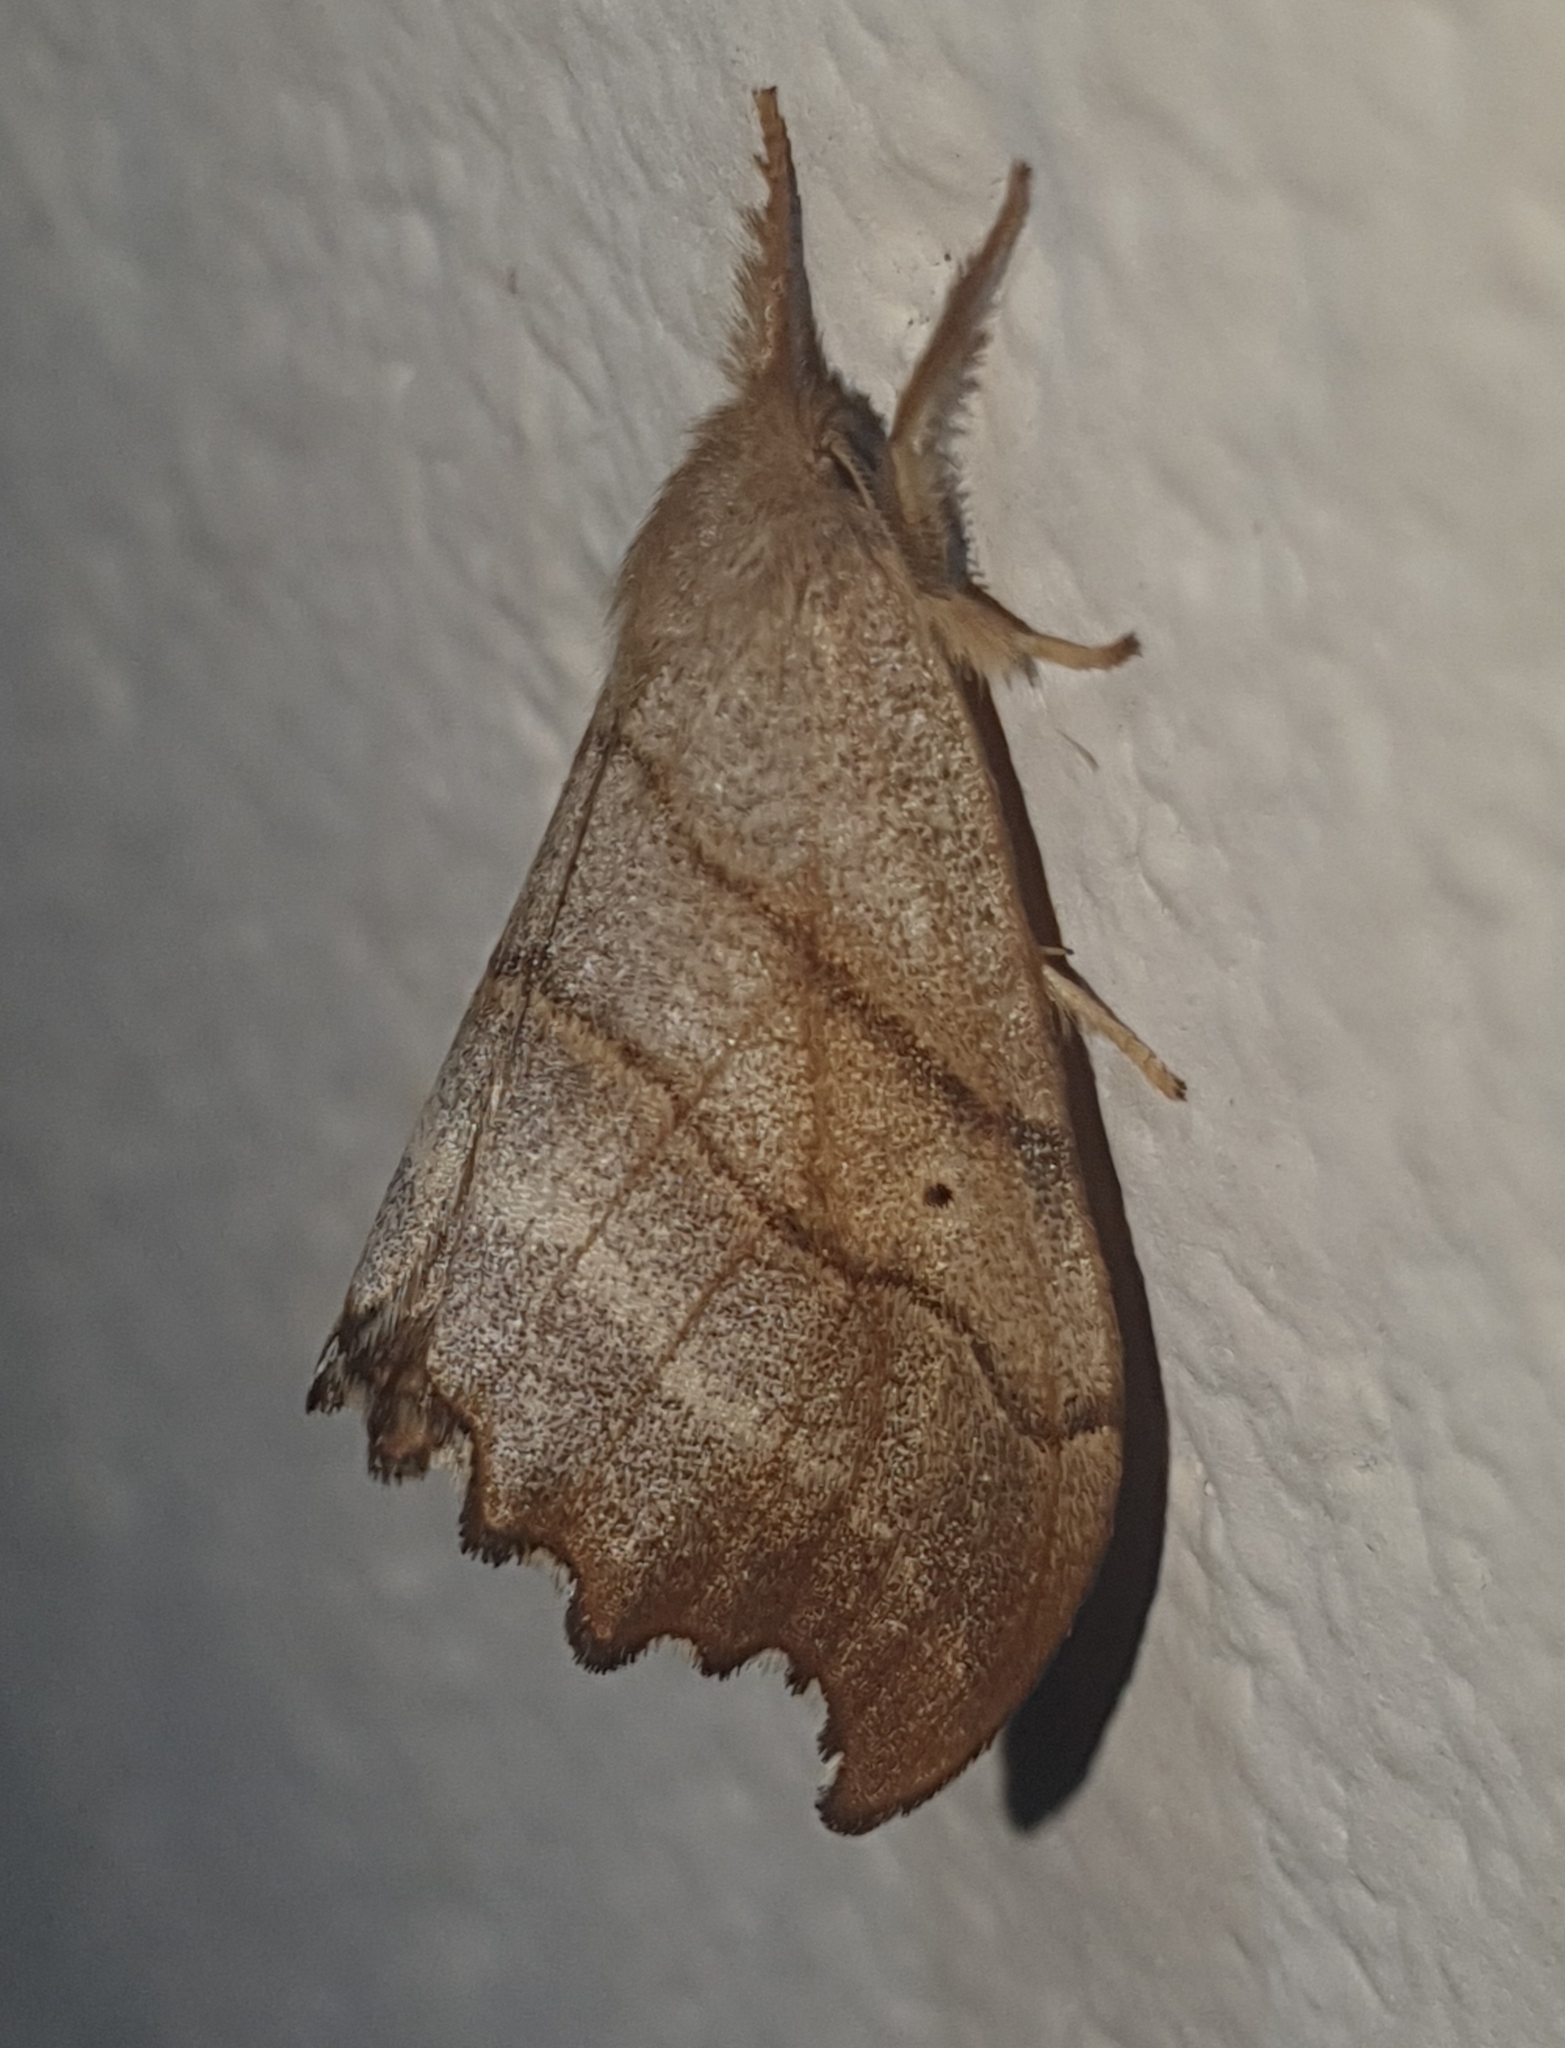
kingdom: Animalia
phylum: Arthropoda
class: Insecta
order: Lepidoptera
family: Drepanidae
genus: Falcaria
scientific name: Falcaria lacertinaria
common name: Scalloped hook-tip
